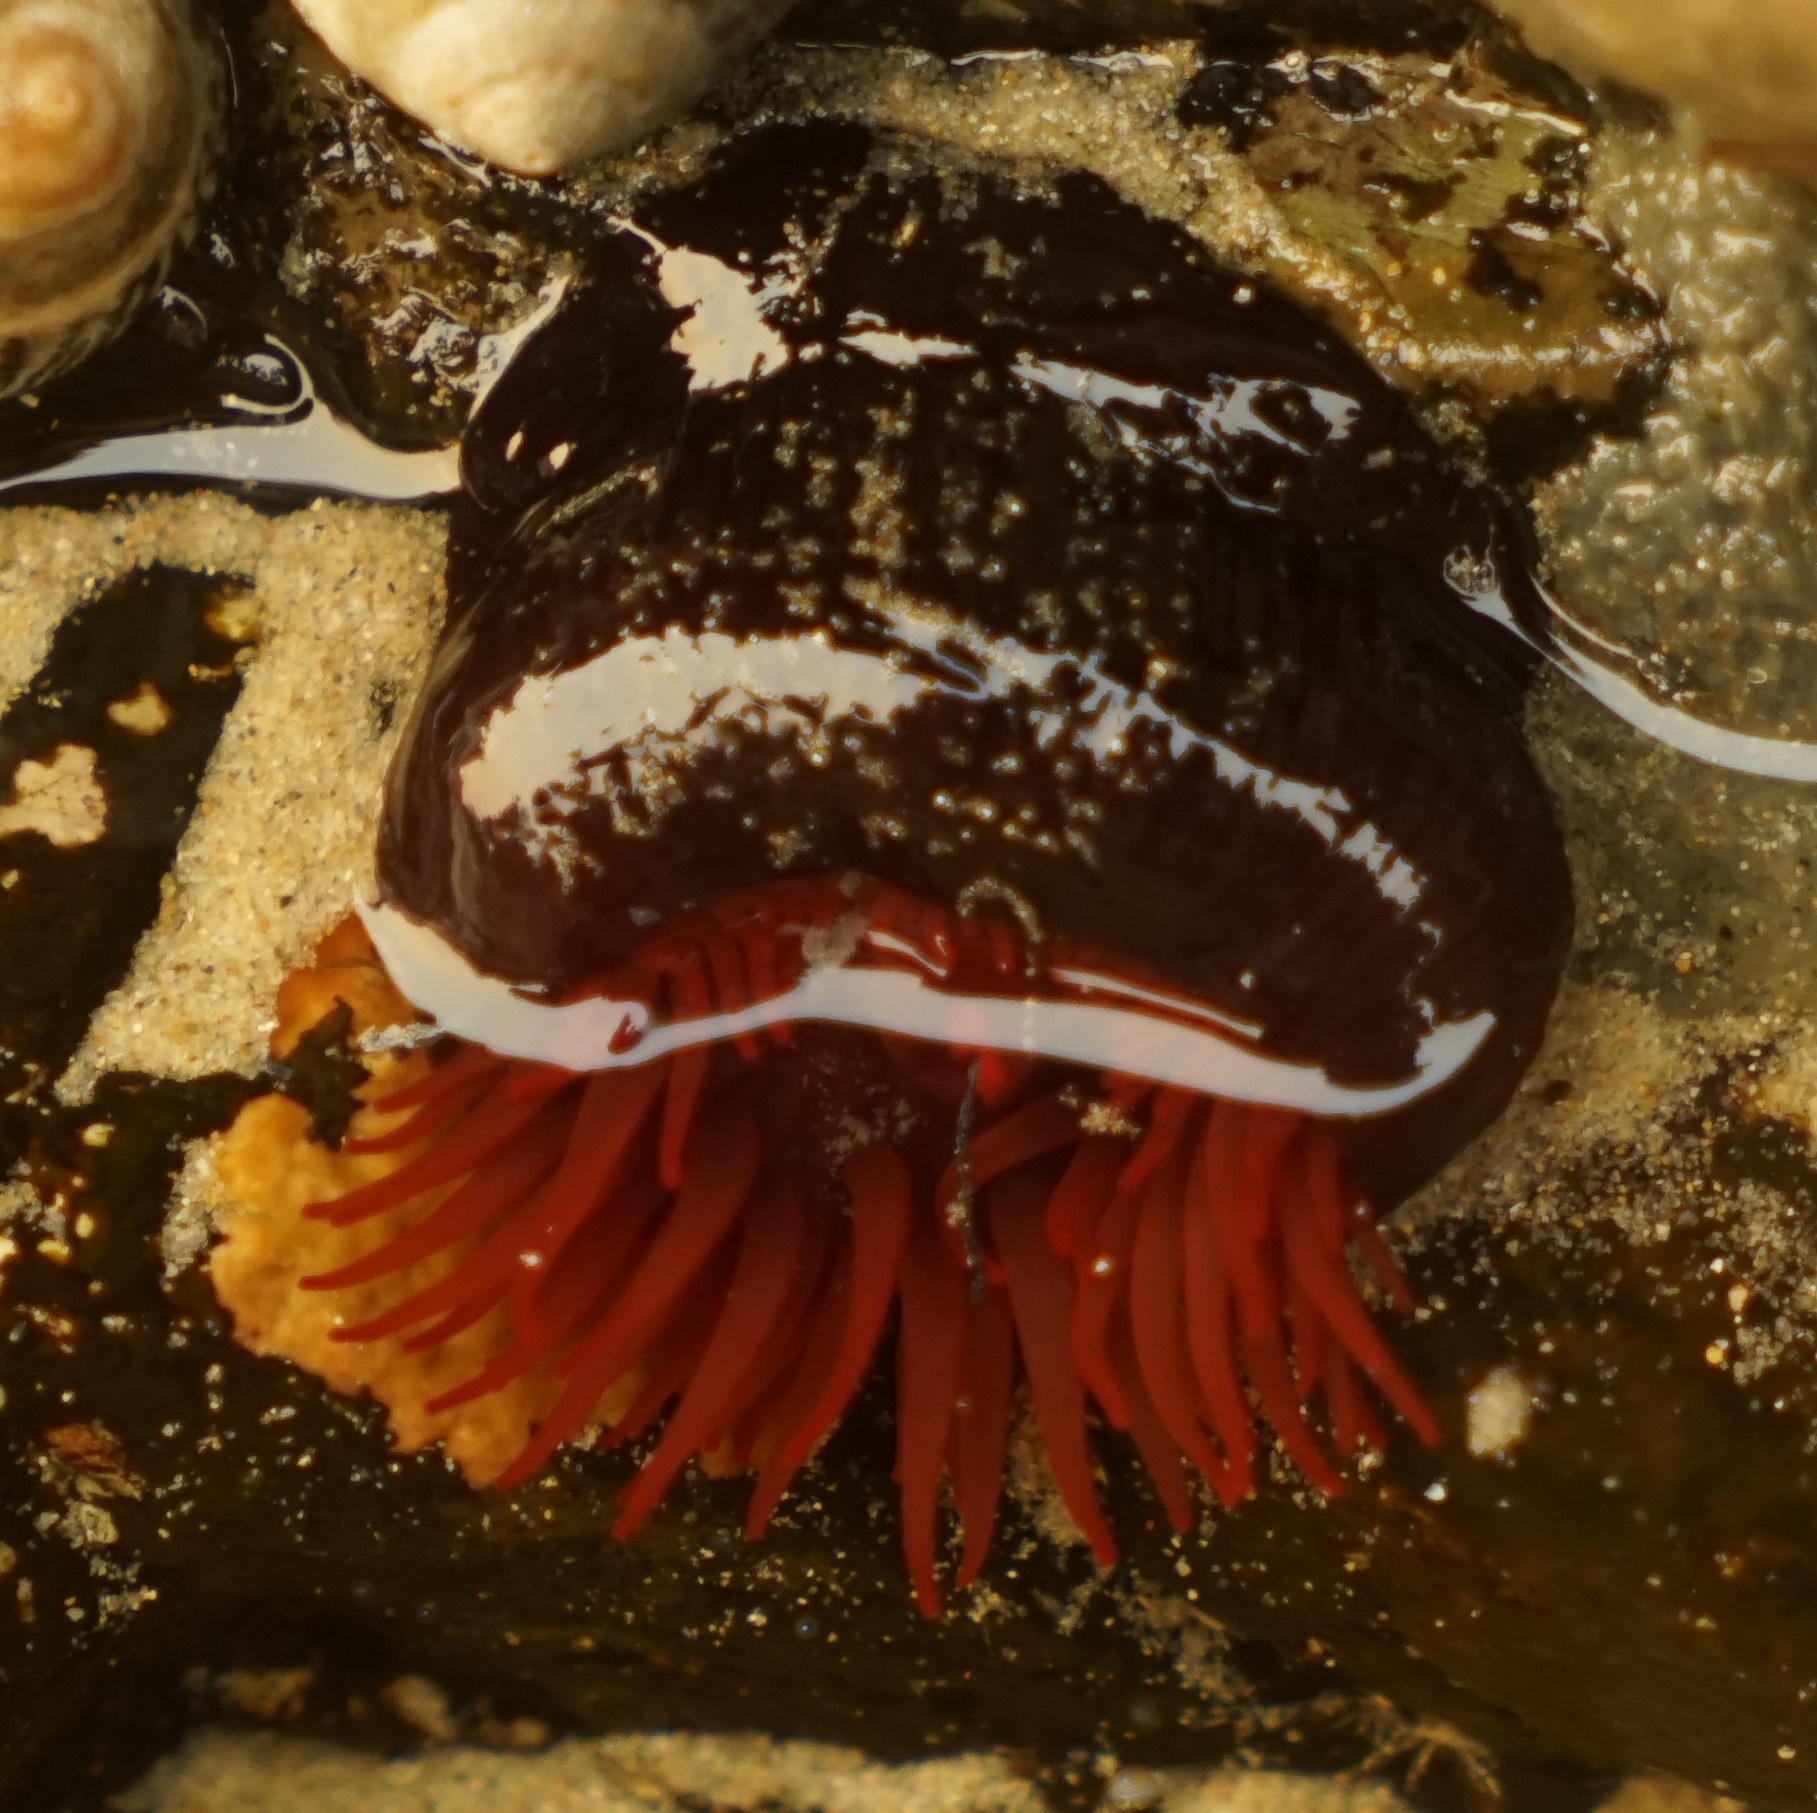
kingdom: Animalia
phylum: Cnidaria
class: Anthozoa
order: Actiniaria
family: Actiniidae
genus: Actinia
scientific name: Actinia tenebrosa
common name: Waratah anemone
